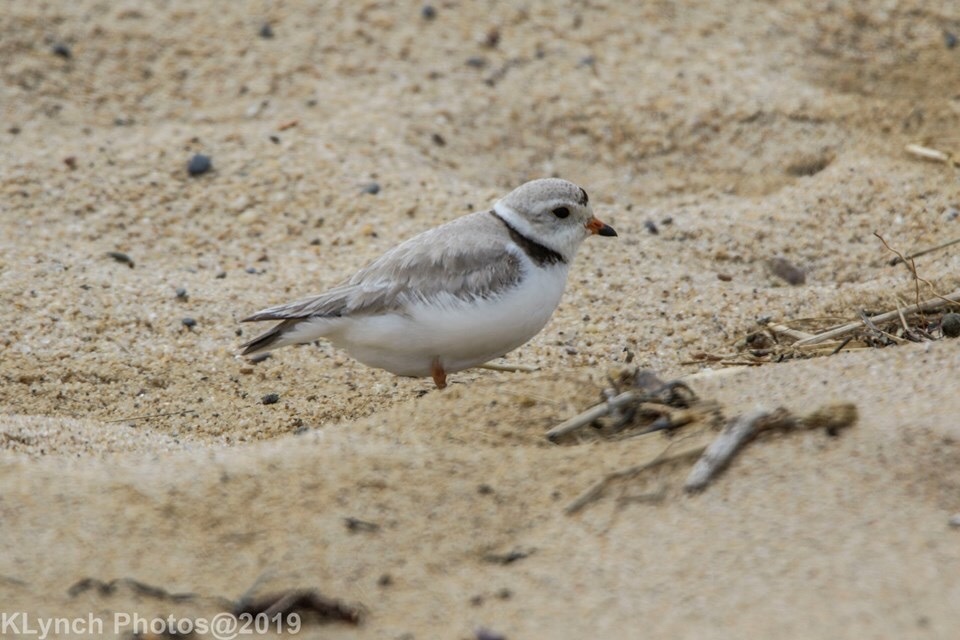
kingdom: Animalia
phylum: Chordata
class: Aves
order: Charadriiformes
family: Charadriidae
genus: Charadrius
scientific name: Charadrius melodus
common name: Piping plover
